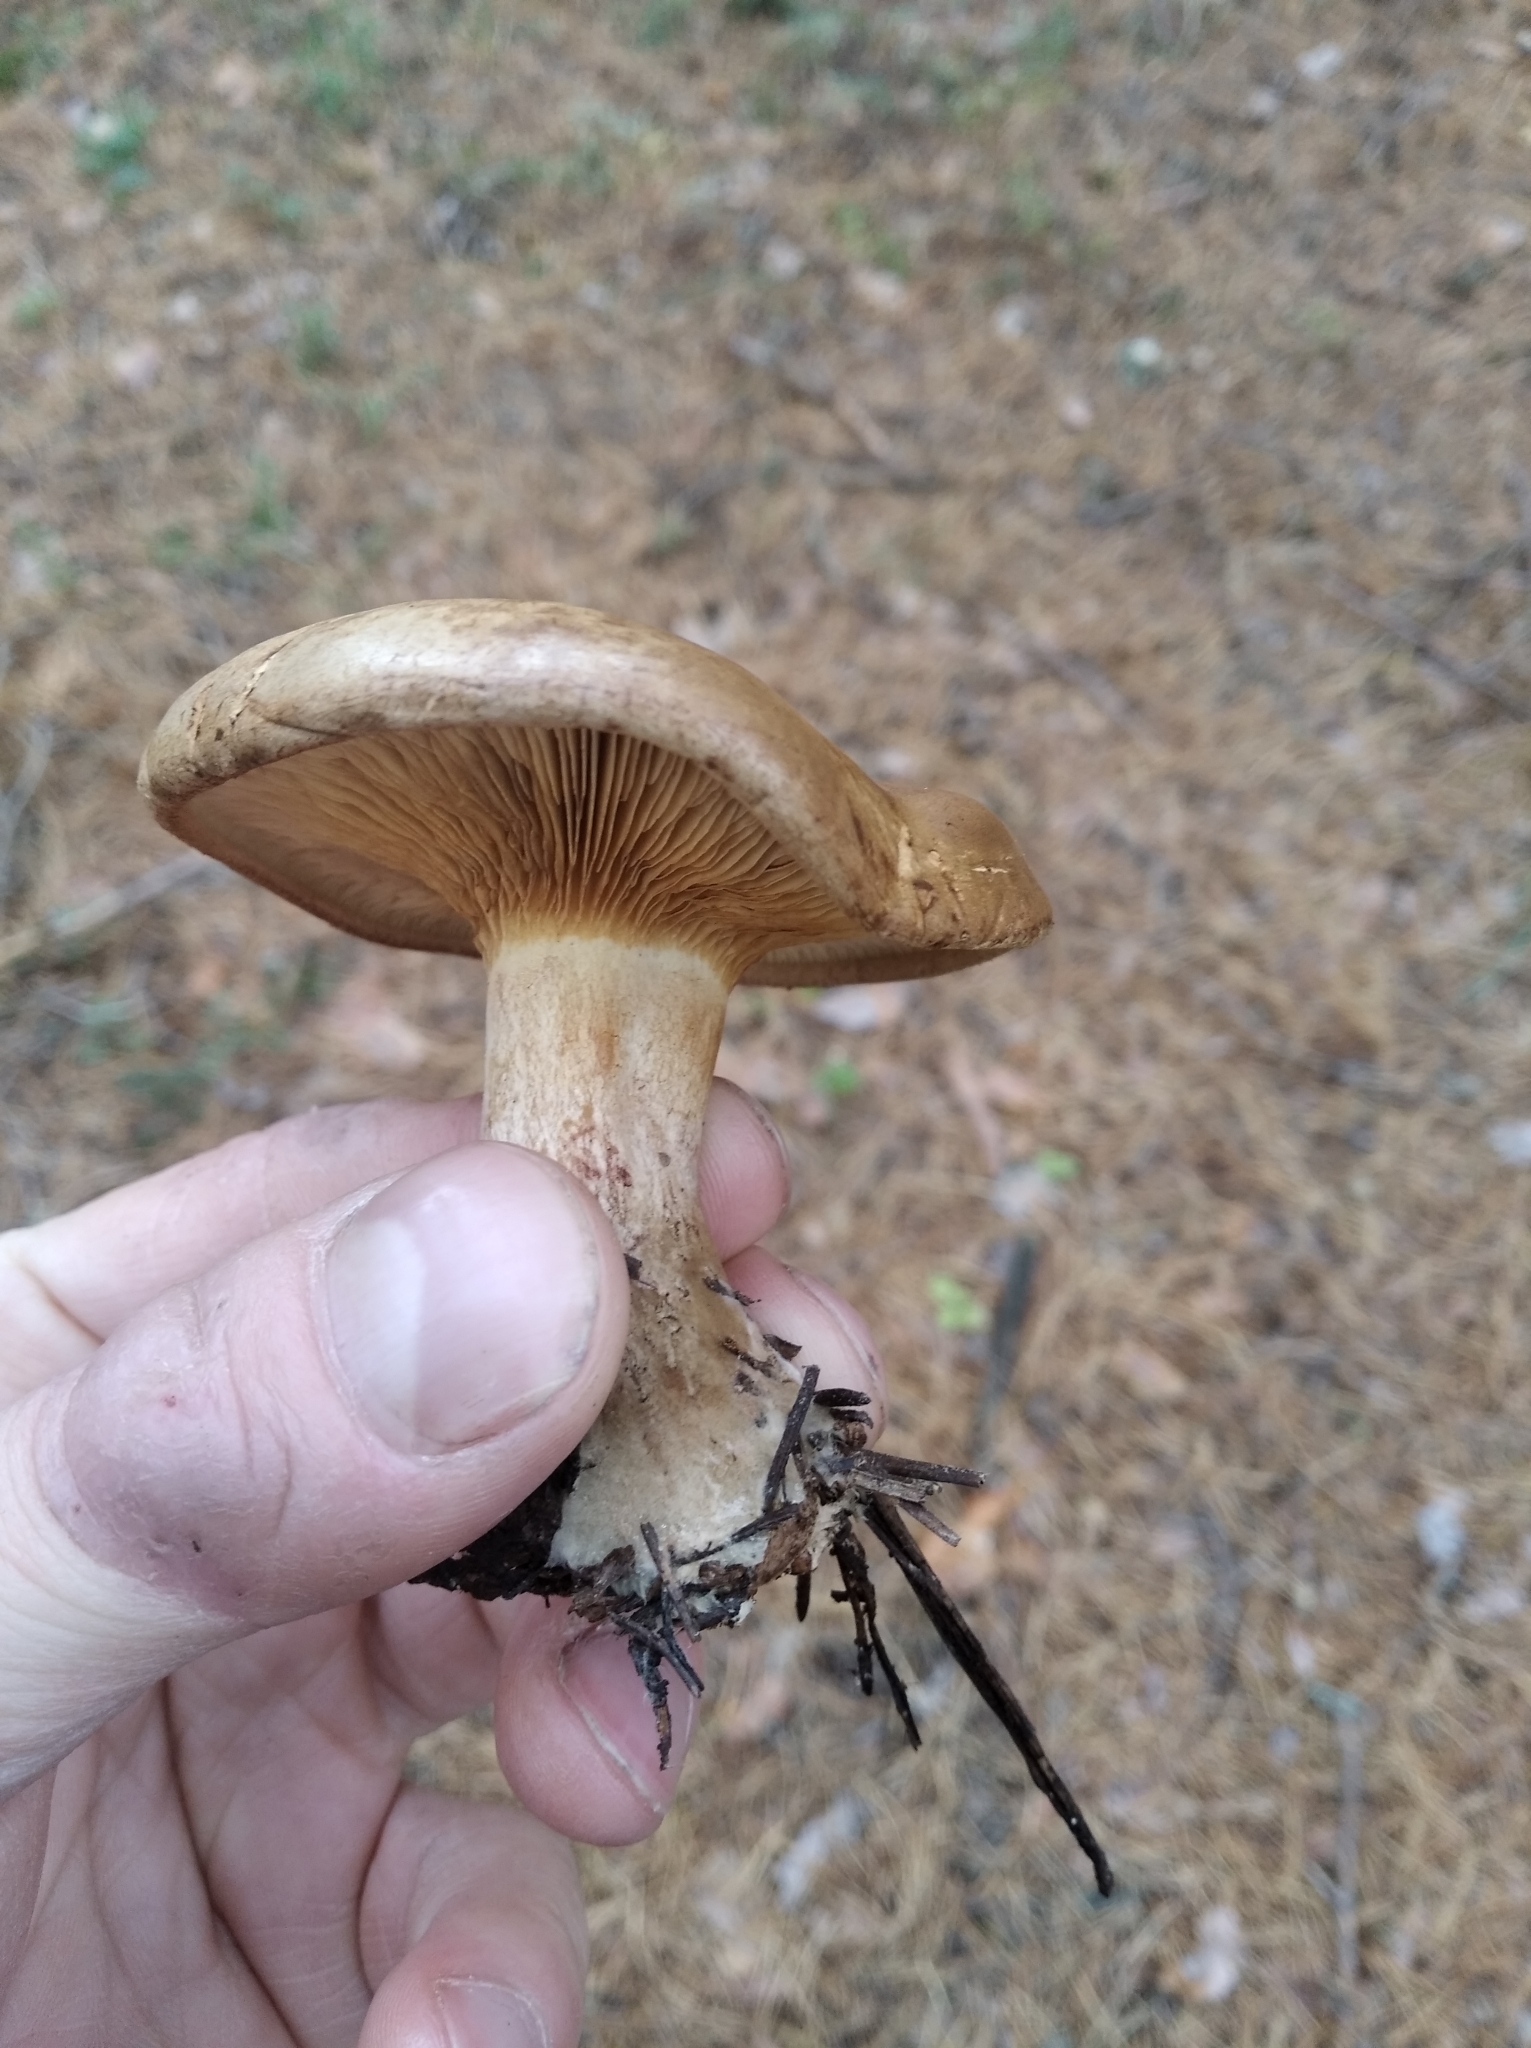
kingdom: Fungi
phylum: Basidiomycota
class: Agaricomycetes
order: Boletales
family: Paxillaceae
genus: Paxillus
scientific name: Paxillus involutus
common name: Brown roll rim
